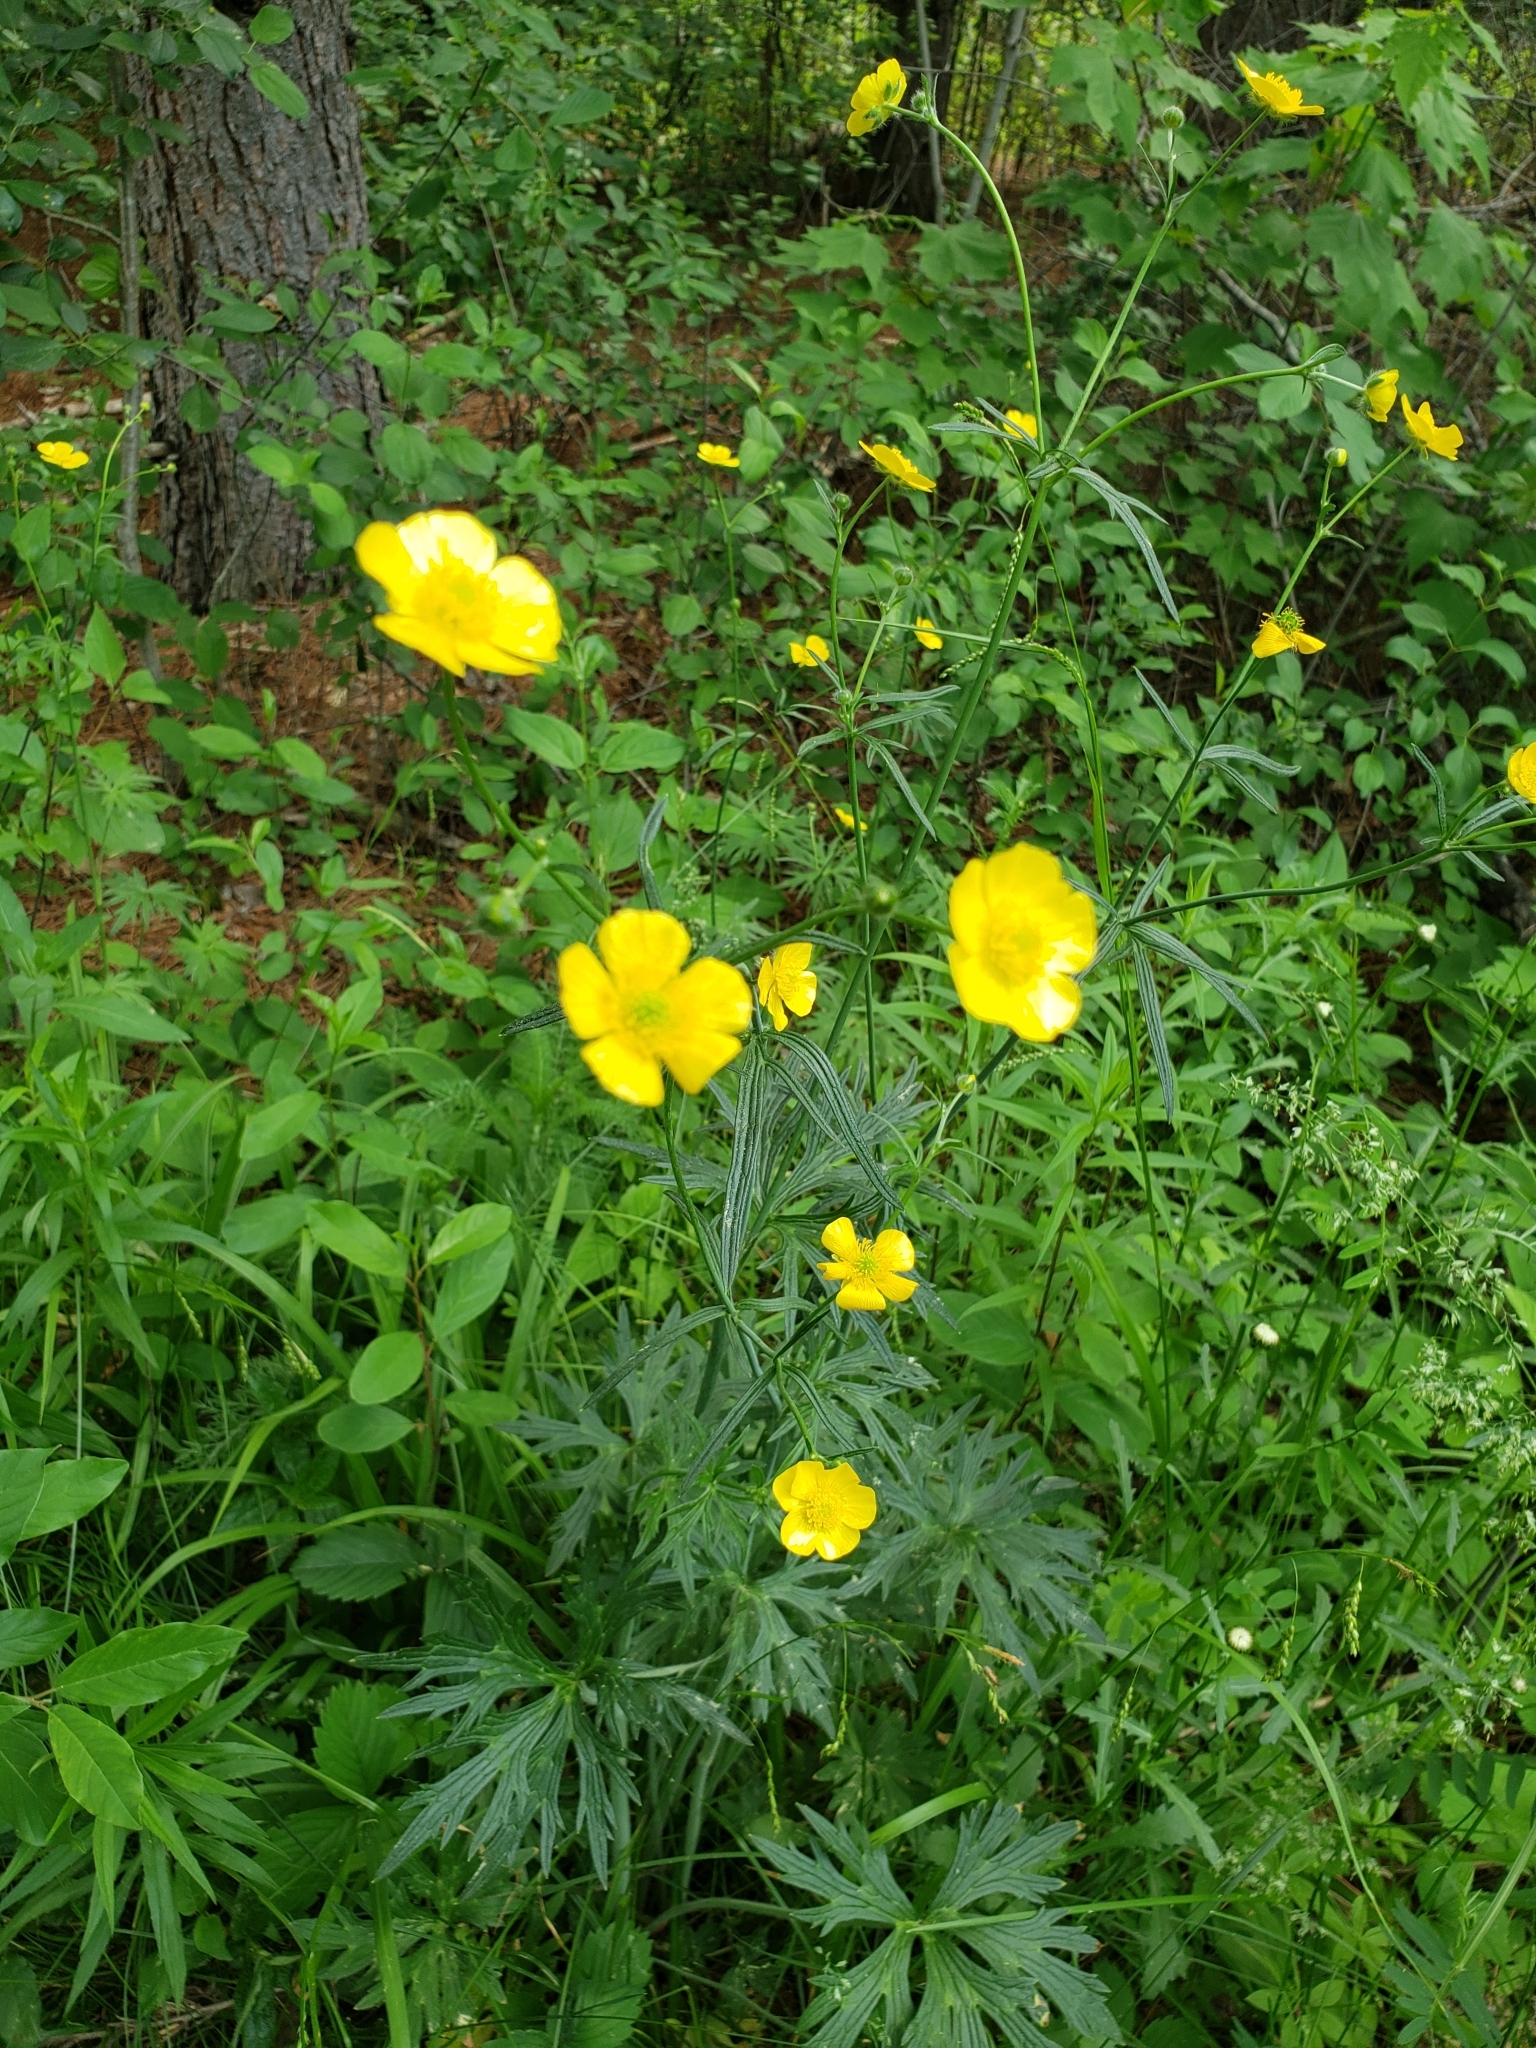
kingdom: Plantae
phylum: Tracheophyta
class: Magnoliopsida
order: Ranunculales
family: Ranunculaceae
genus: Ranunculus
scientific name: Ranunculus acris
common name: Meadow buttercup
